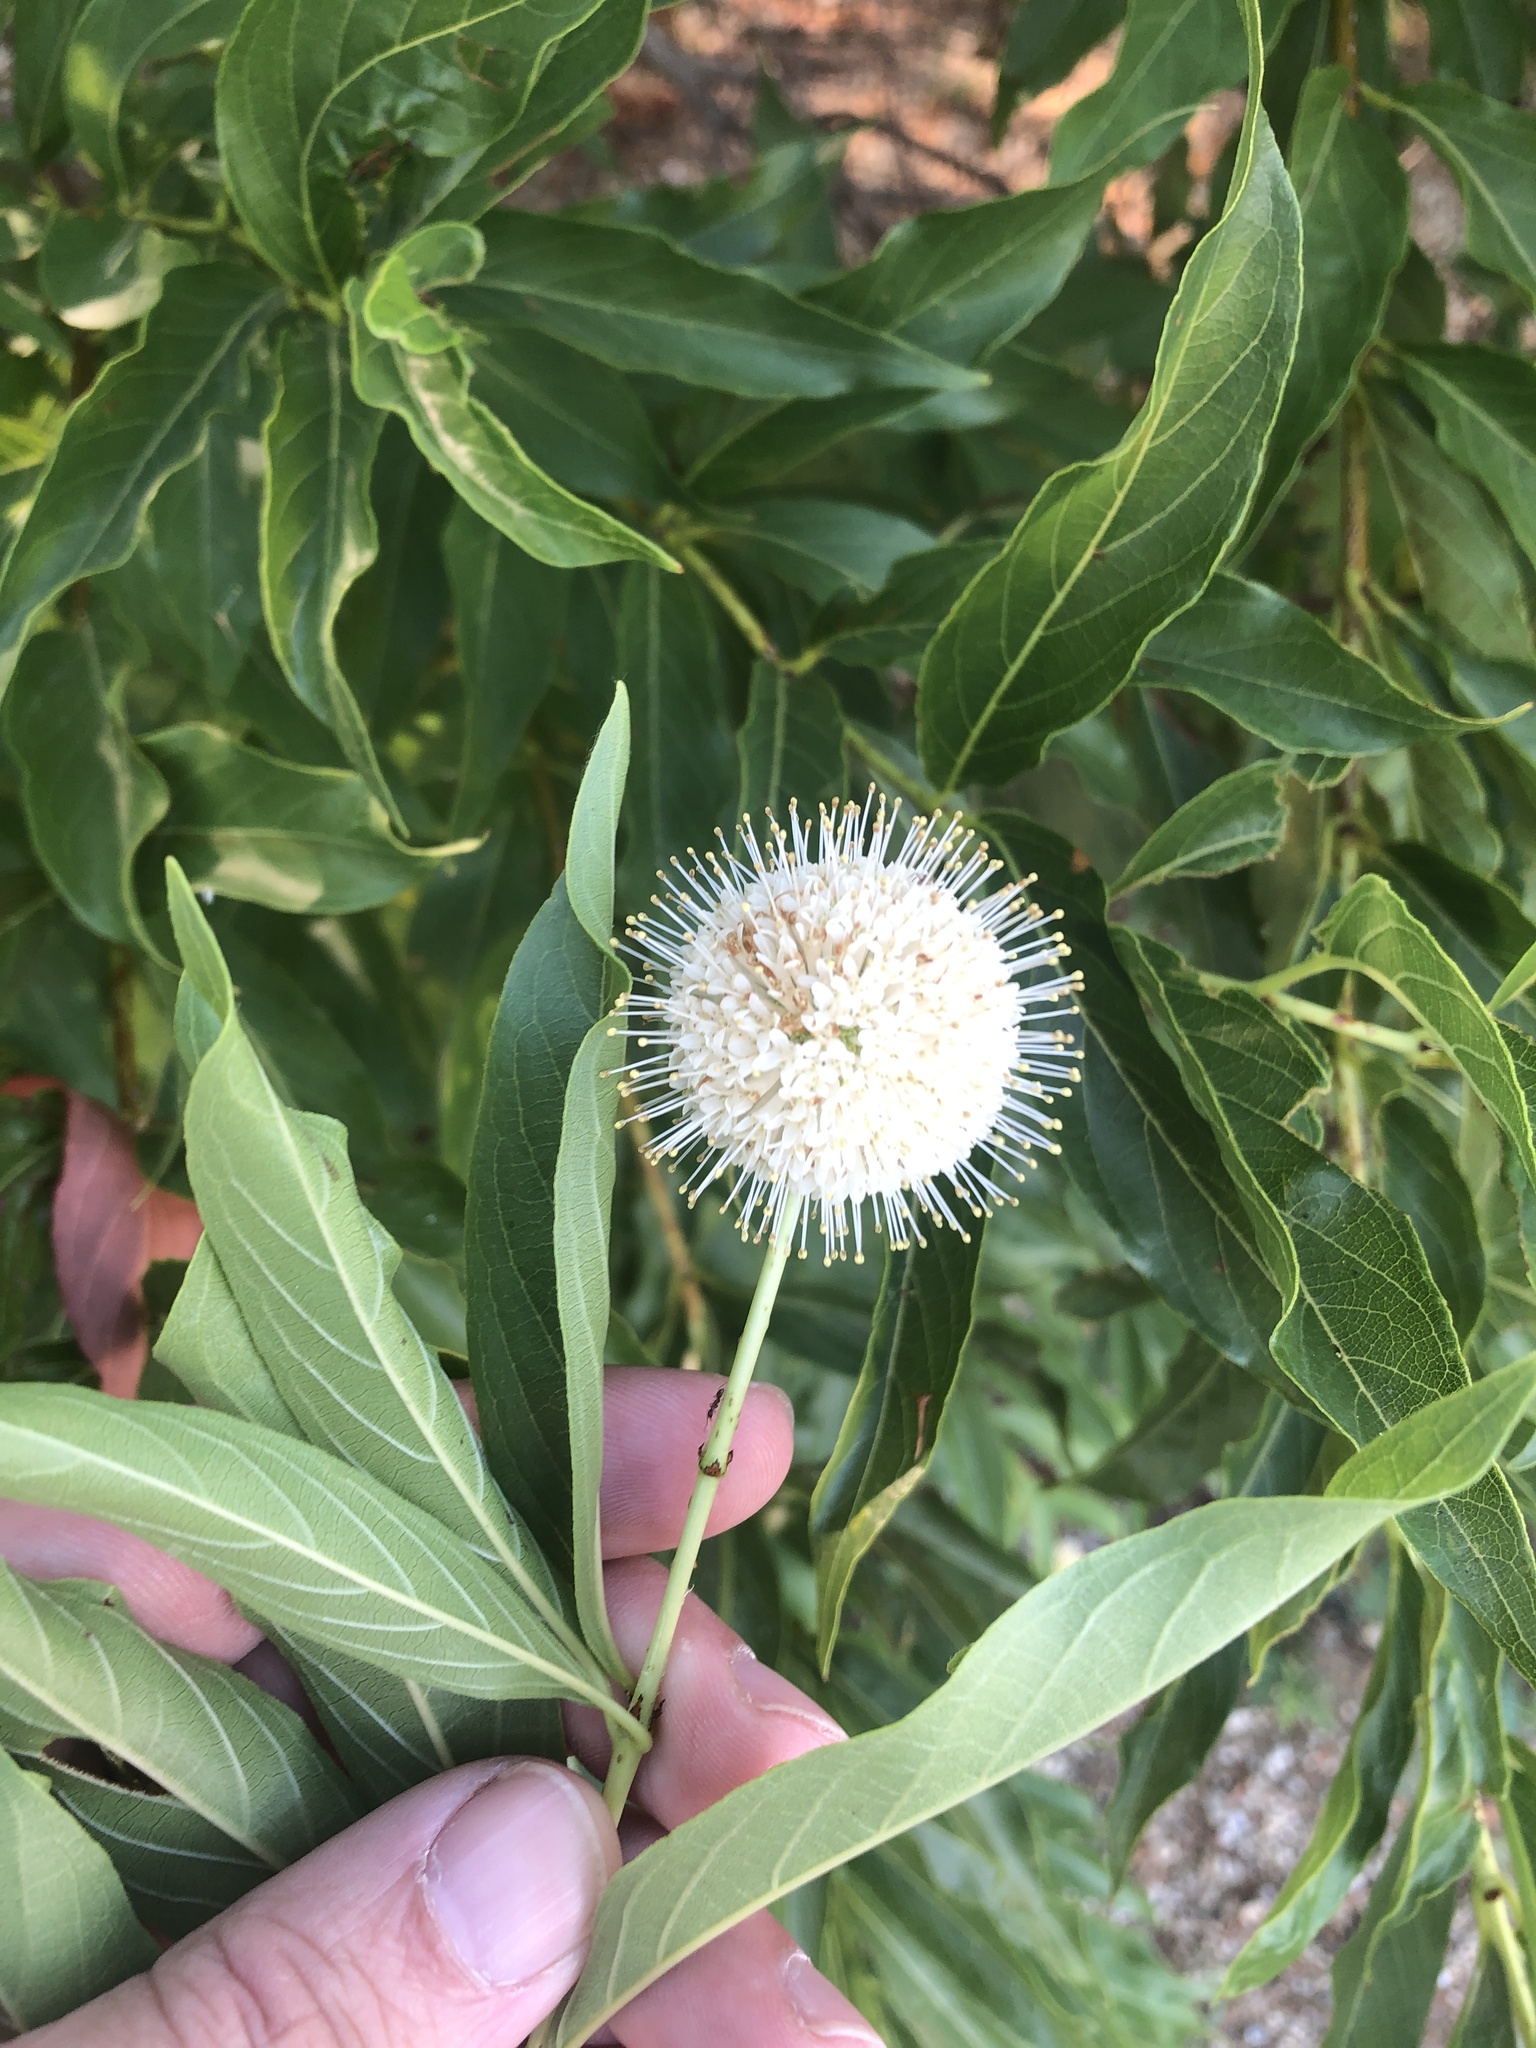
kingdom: Plantae
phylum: Tracheophyta
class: Magnoliopsida
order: Gentianales
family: Rubiaceae
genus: Cephalanthus
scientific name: Cephalanthus occidentalis
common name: Button-willow
